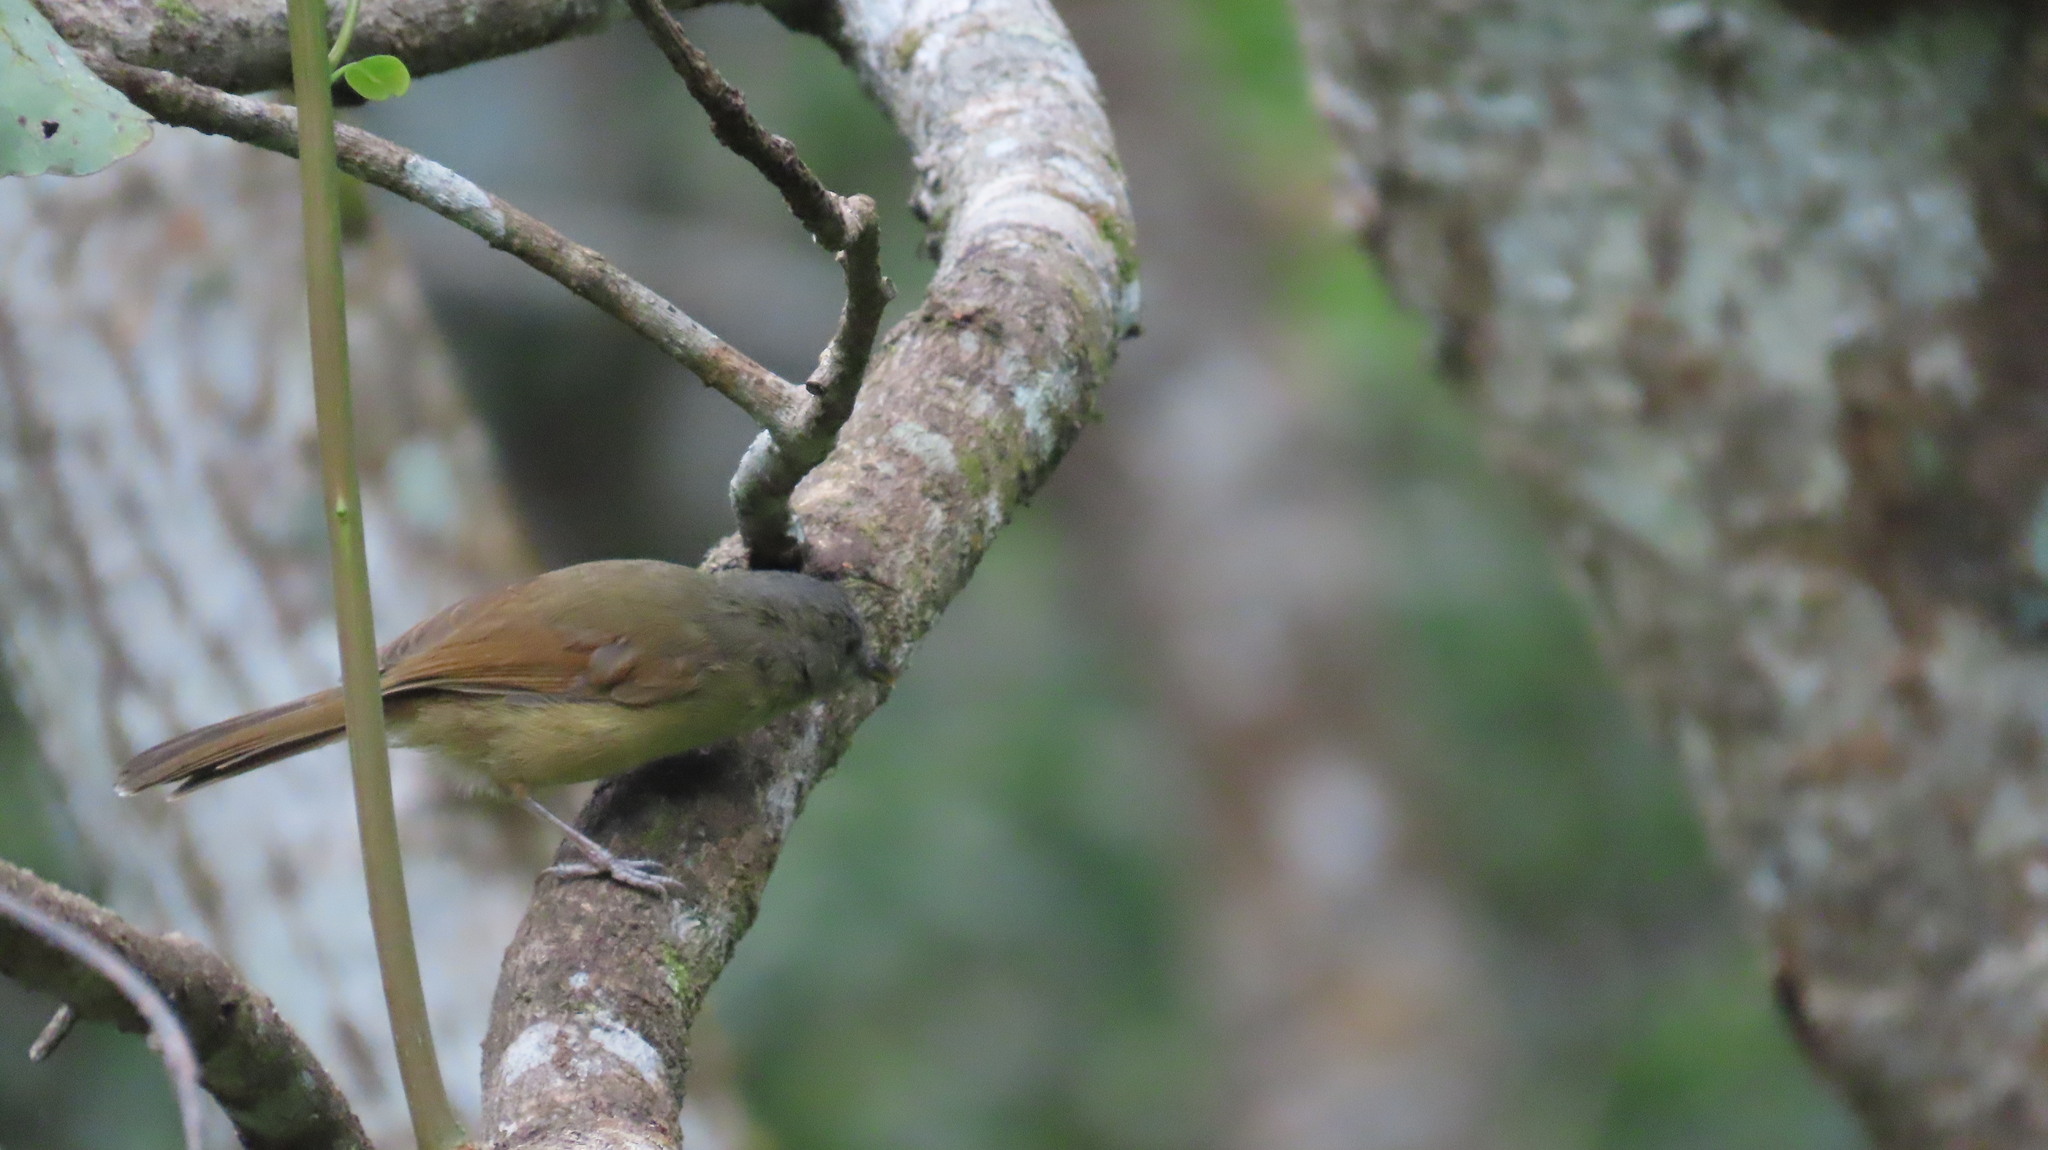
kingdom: Animalia
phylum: Chordata
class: Aves
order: Passeriformes
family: Pellorneidae
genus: Alcippe
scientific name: Alcippe poioicephala
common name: Brown-cheeked fulvetta
